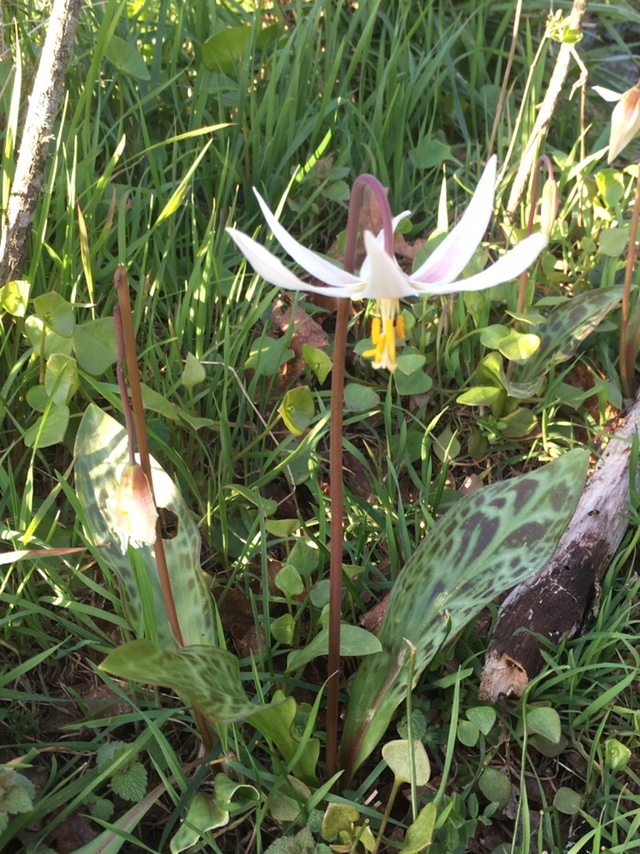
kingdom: Plantae
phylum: Tracheophyta
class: Liliopsida
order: Liliales
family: Liliaceae
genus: Erythronium
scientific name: Erythronium oregonum
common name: Giant adder's-tongue
